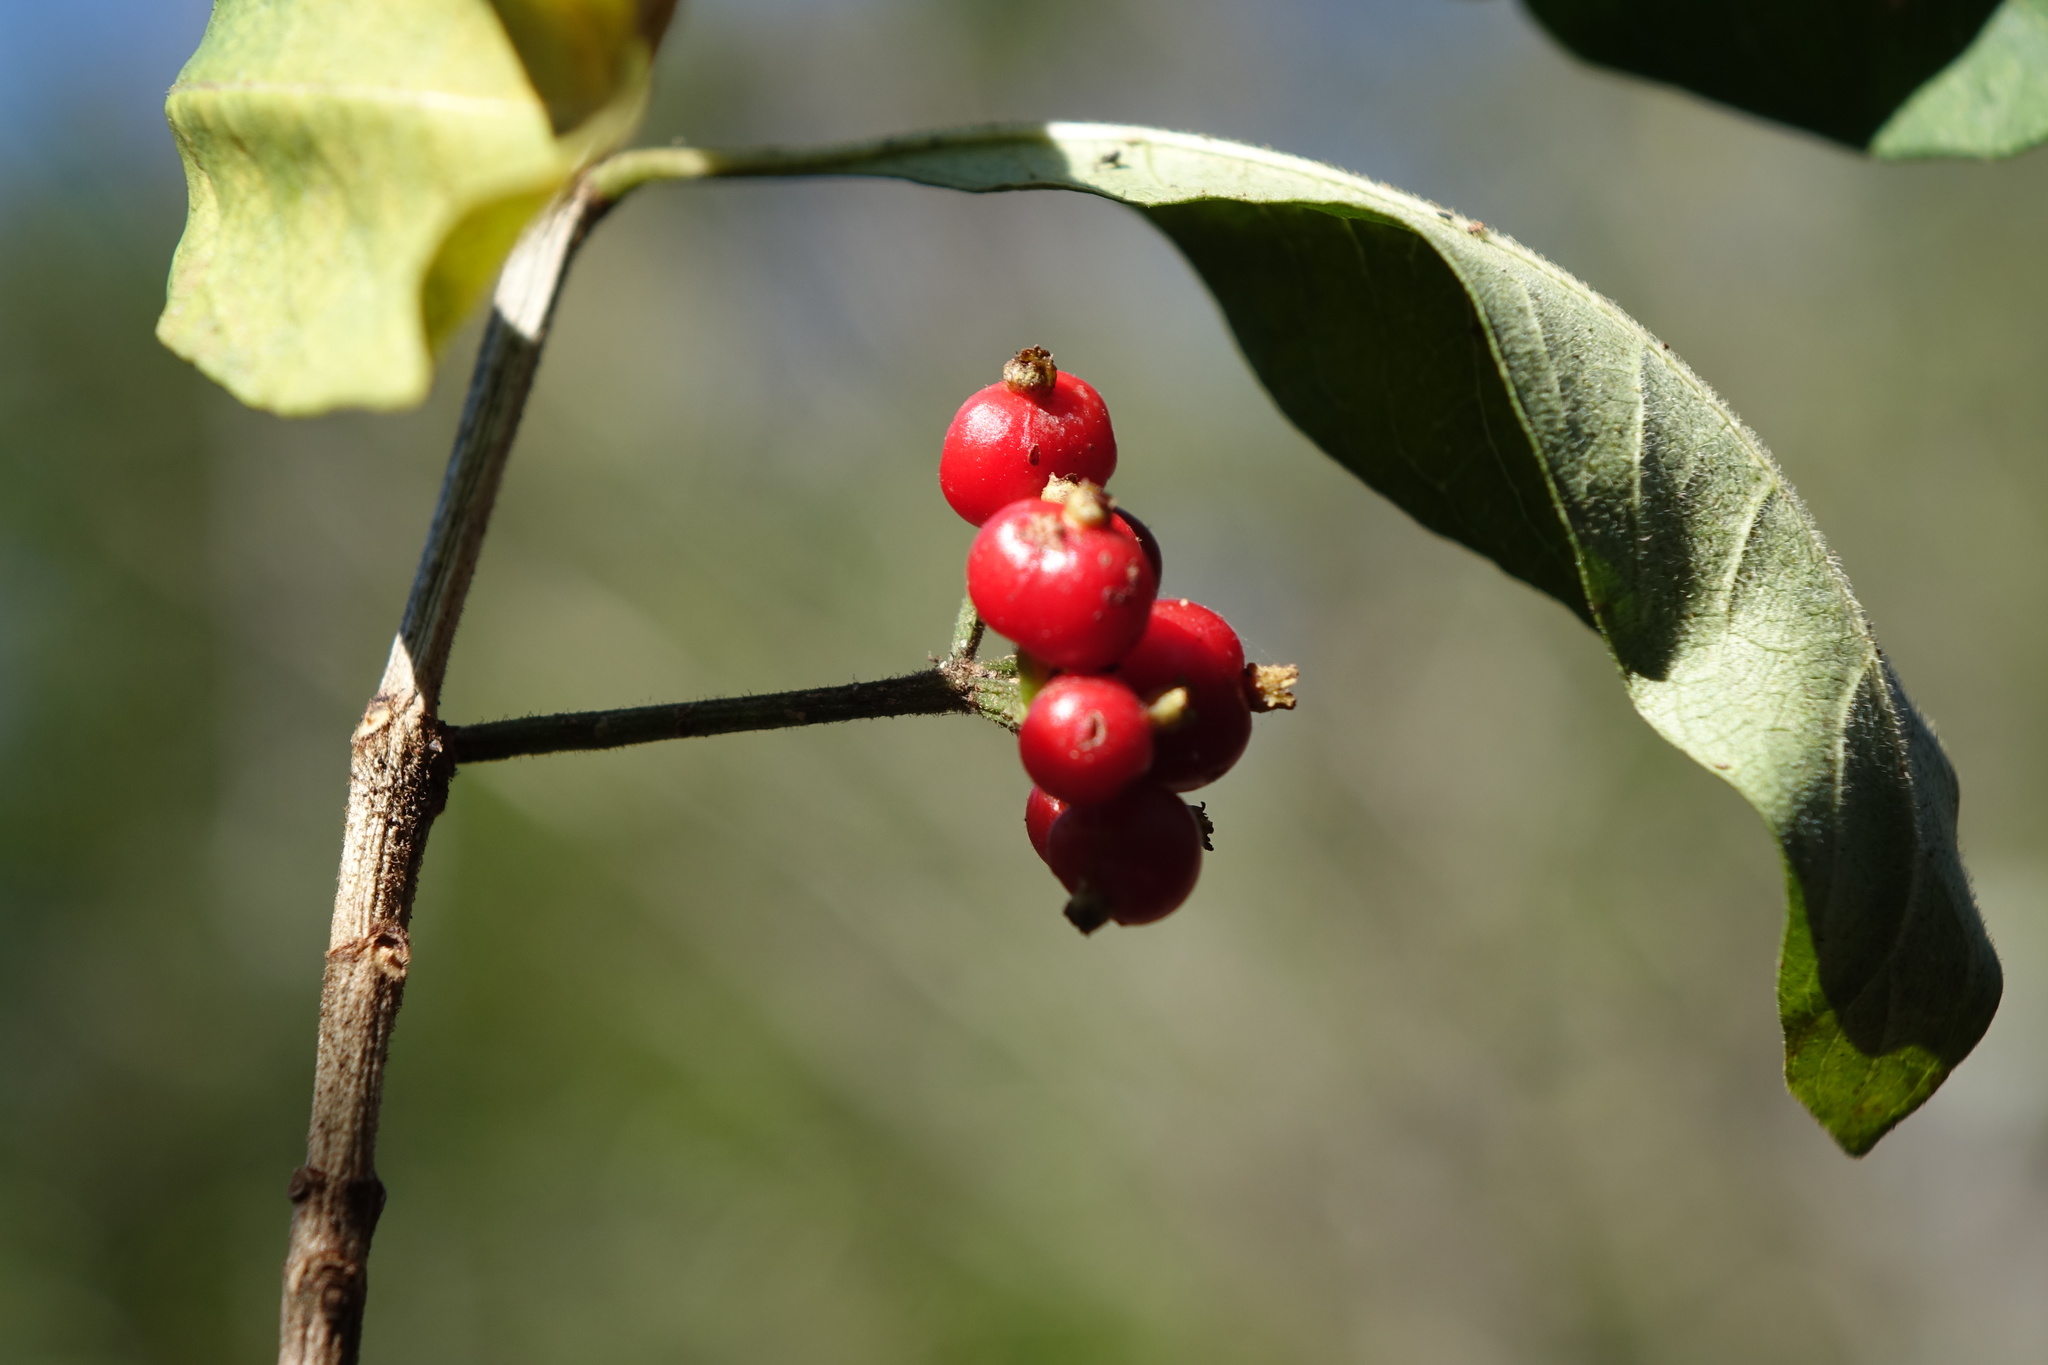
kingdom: Plantae
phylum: Tracheophyta
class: Magnoliopsida
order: Gentianales
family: Rubiaceae
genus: Psychotria
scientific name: Psychotria puffii
